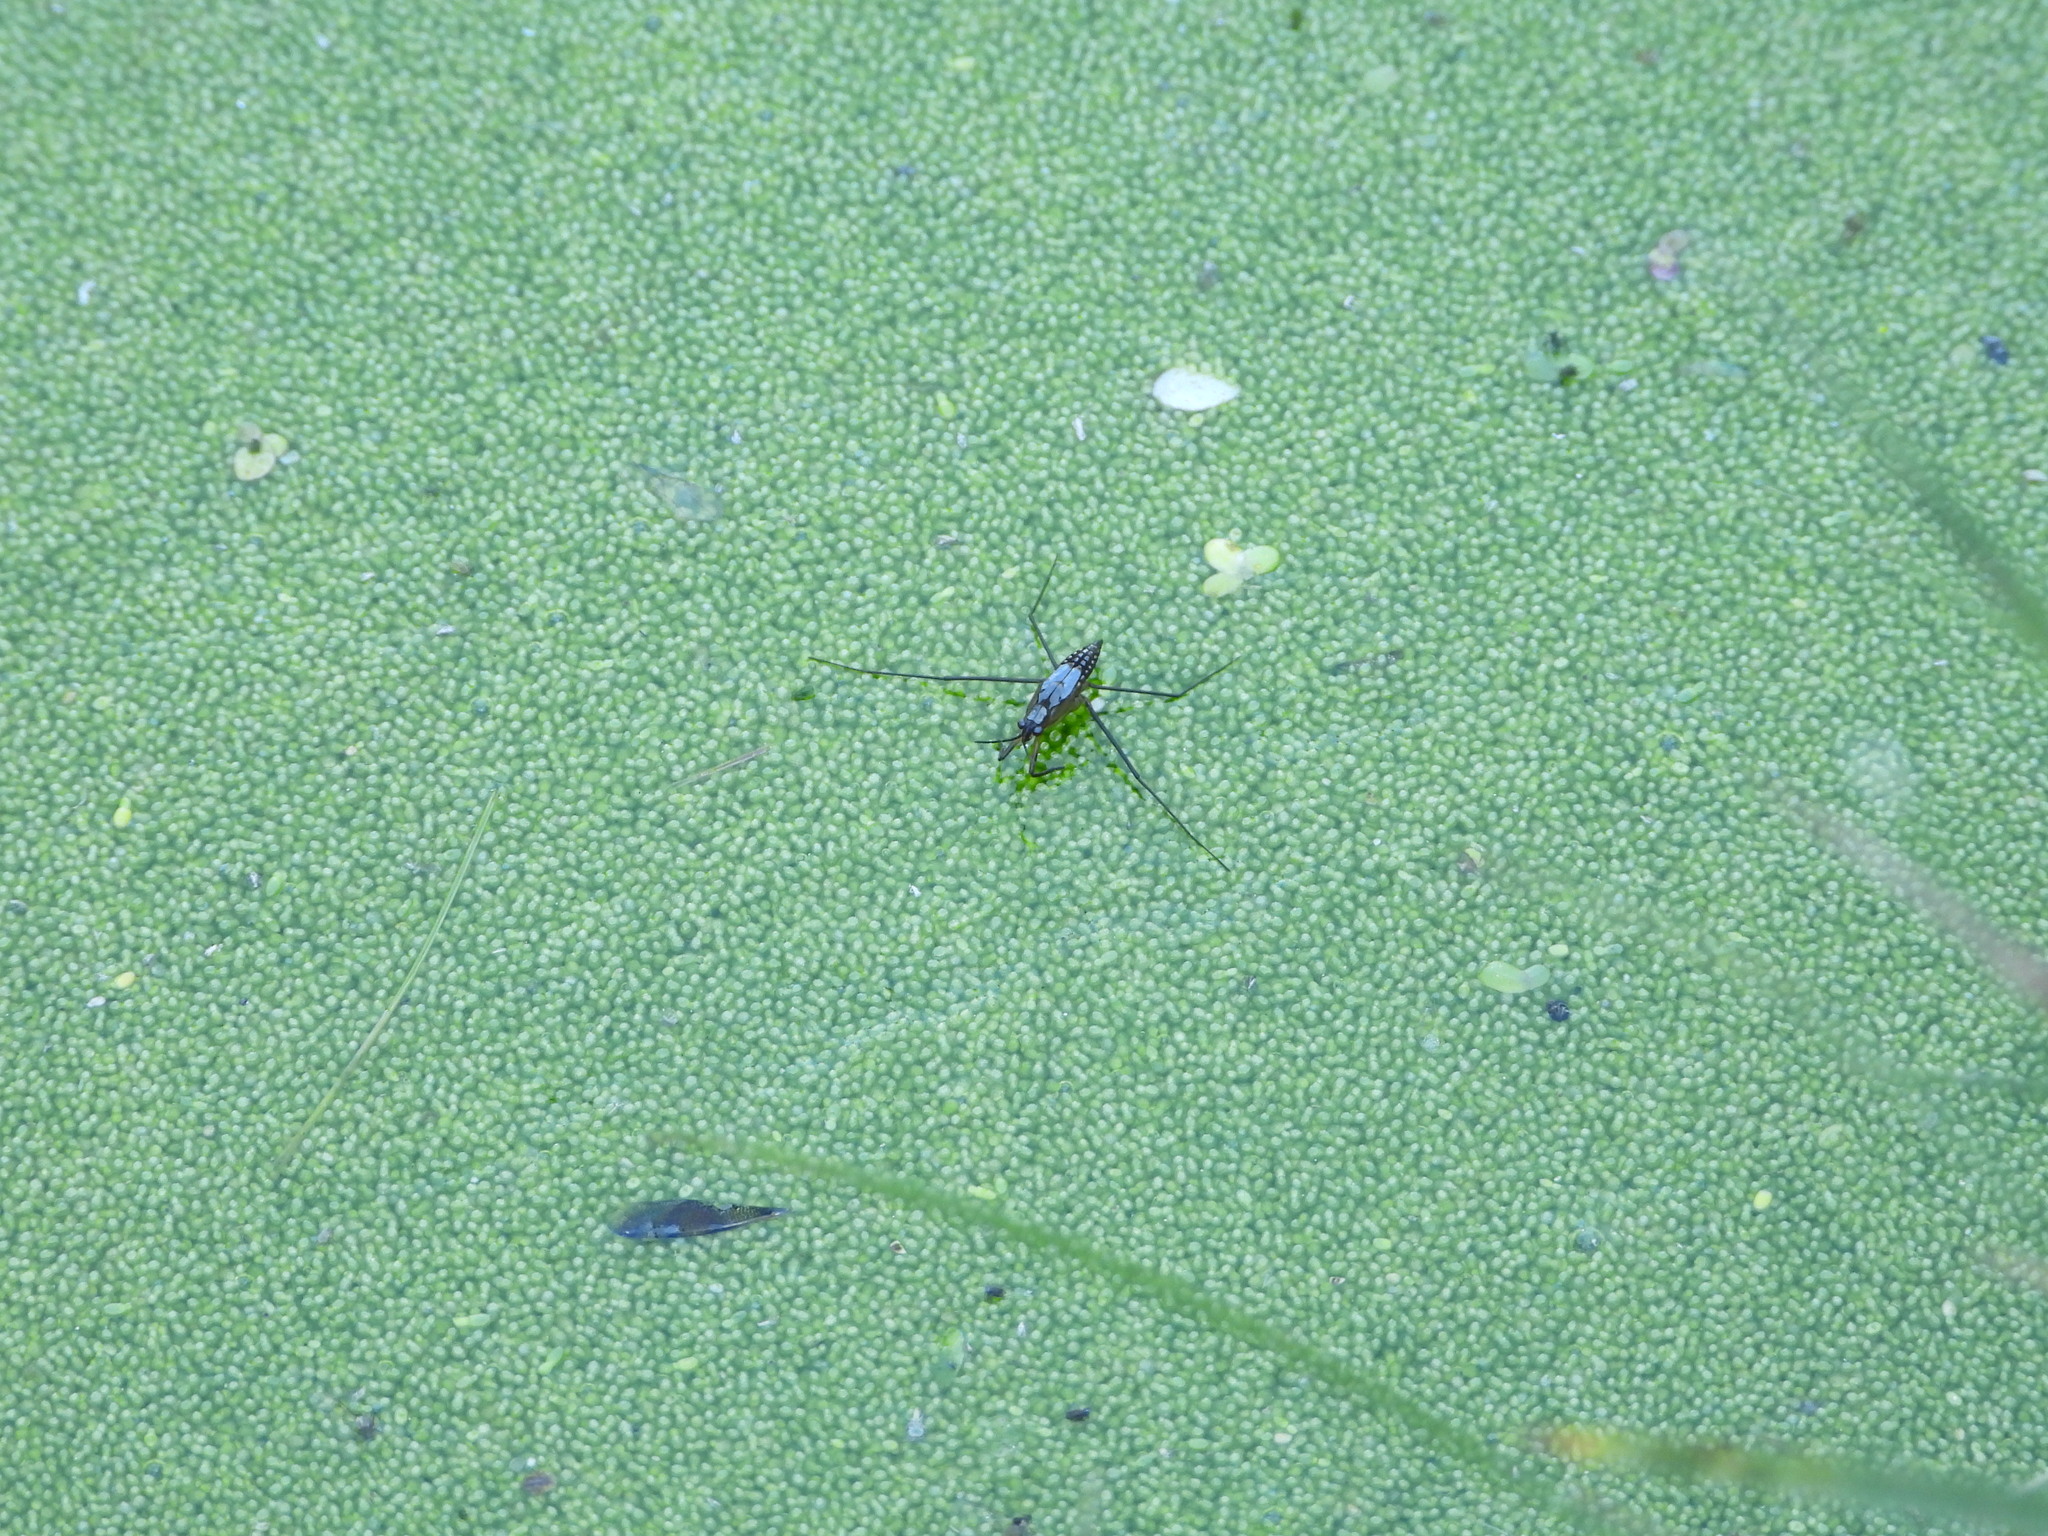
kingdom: Animalia
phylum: Arthropoda
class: Insecta
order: Hemiptera
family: Gerridae
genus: Gerris
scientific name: Gerris
